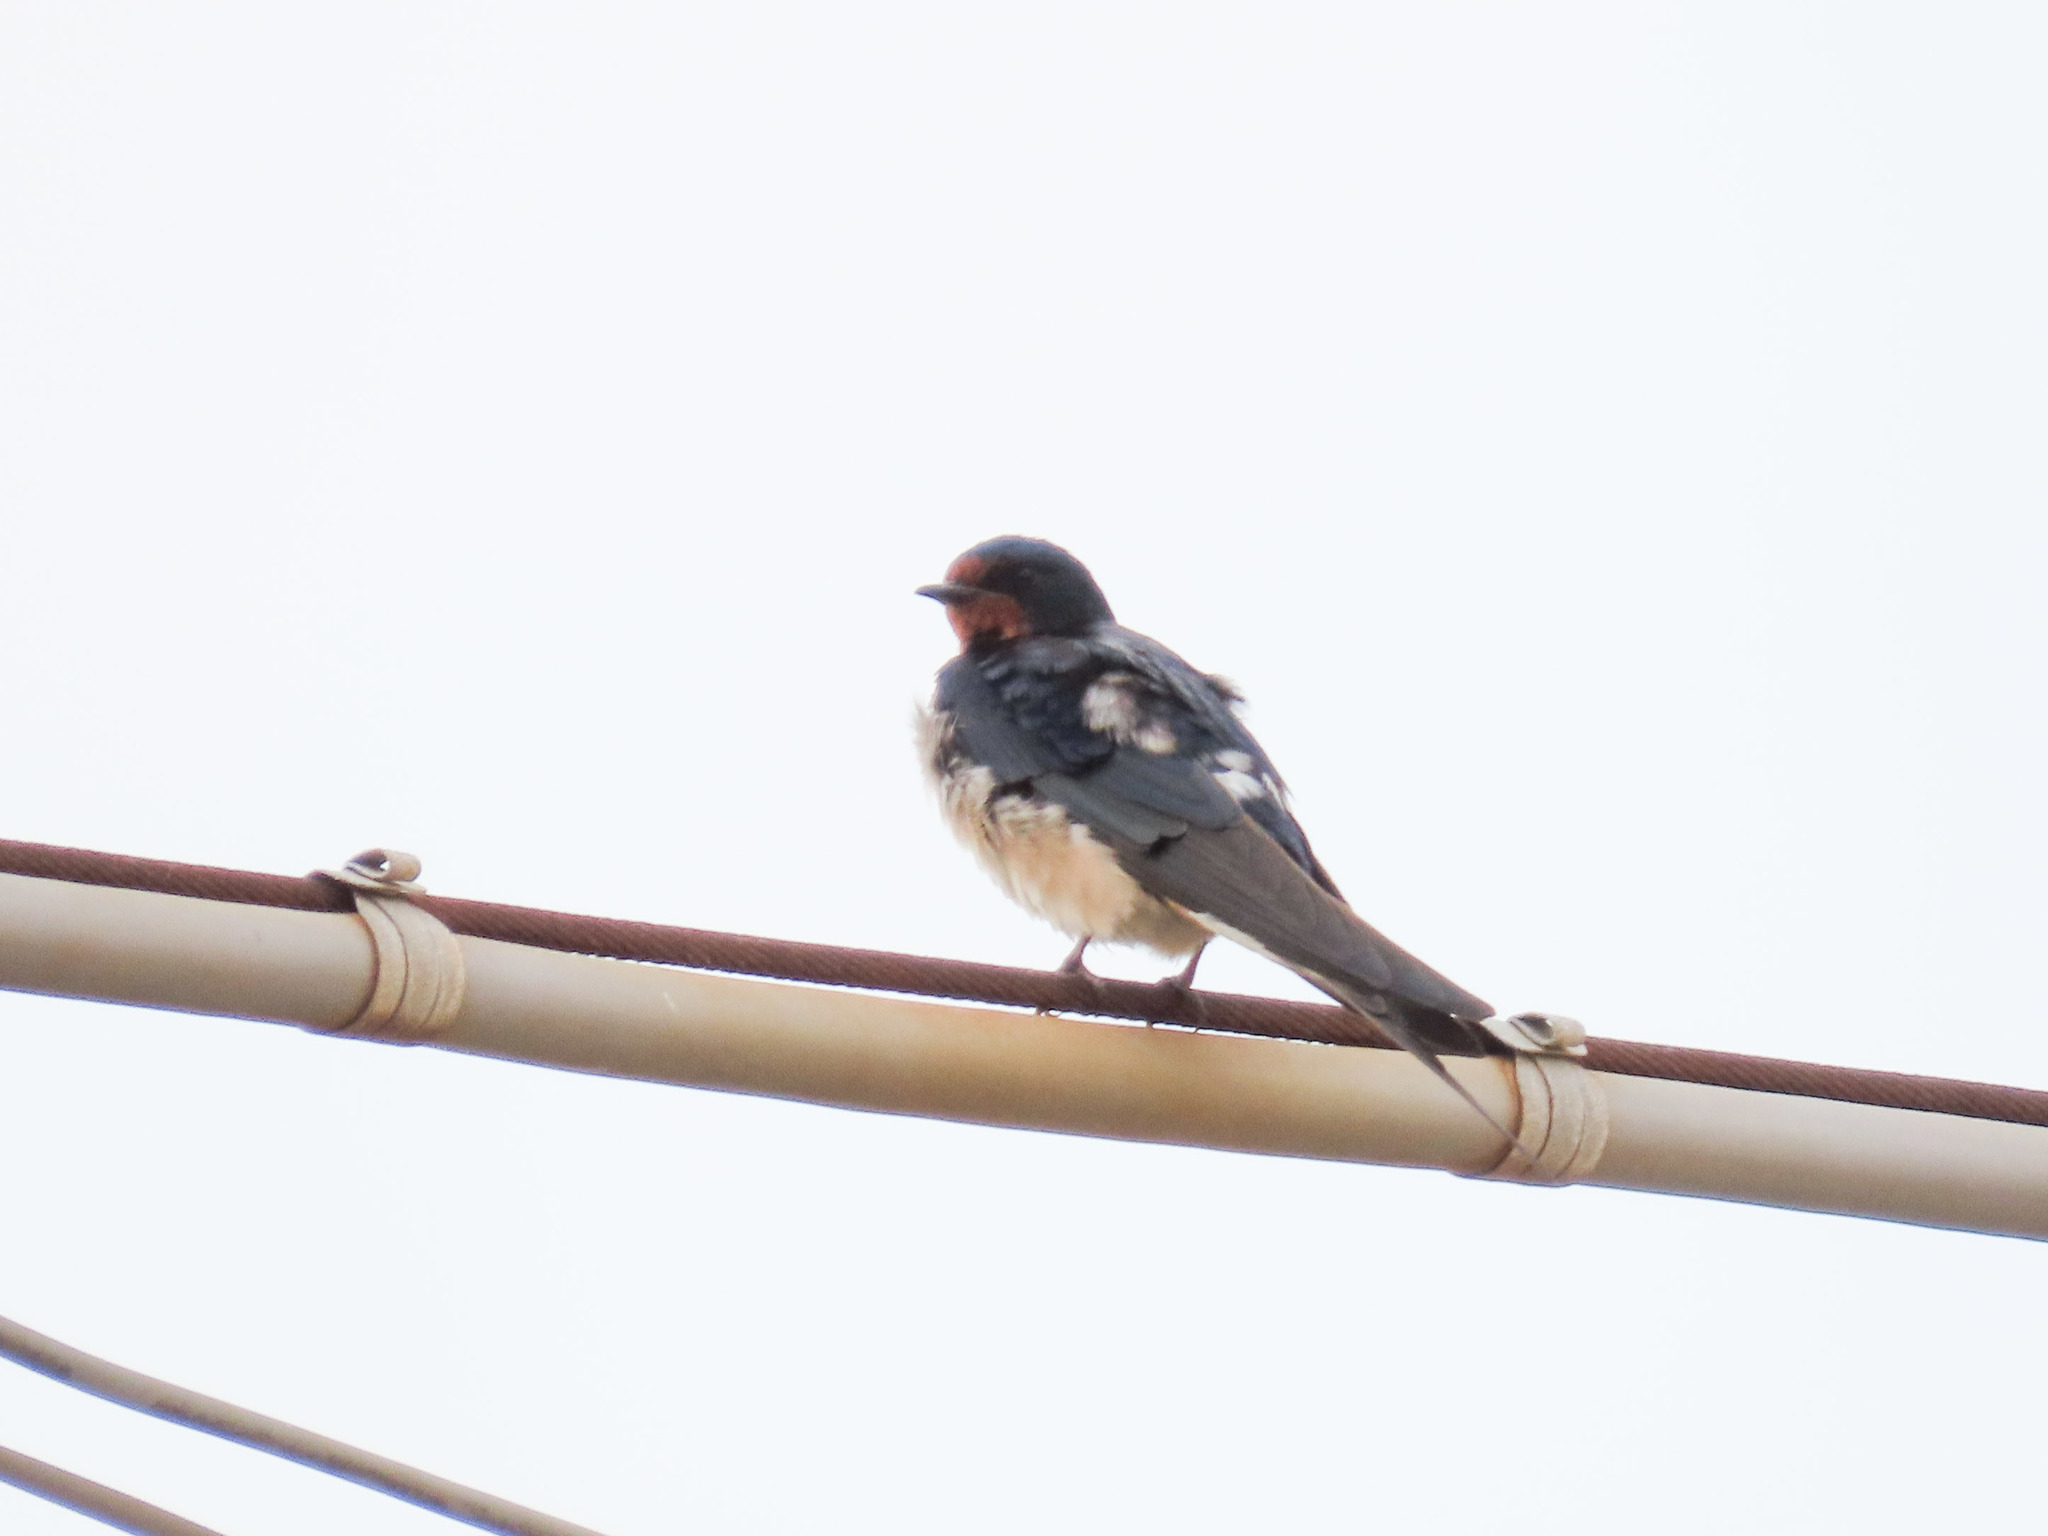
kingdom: Animalia
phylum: Chordata
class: Aves
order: Passeriformes
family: Hirundinidae
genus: Hirundo
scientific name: Hirundo rustica
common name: Barn swallow
